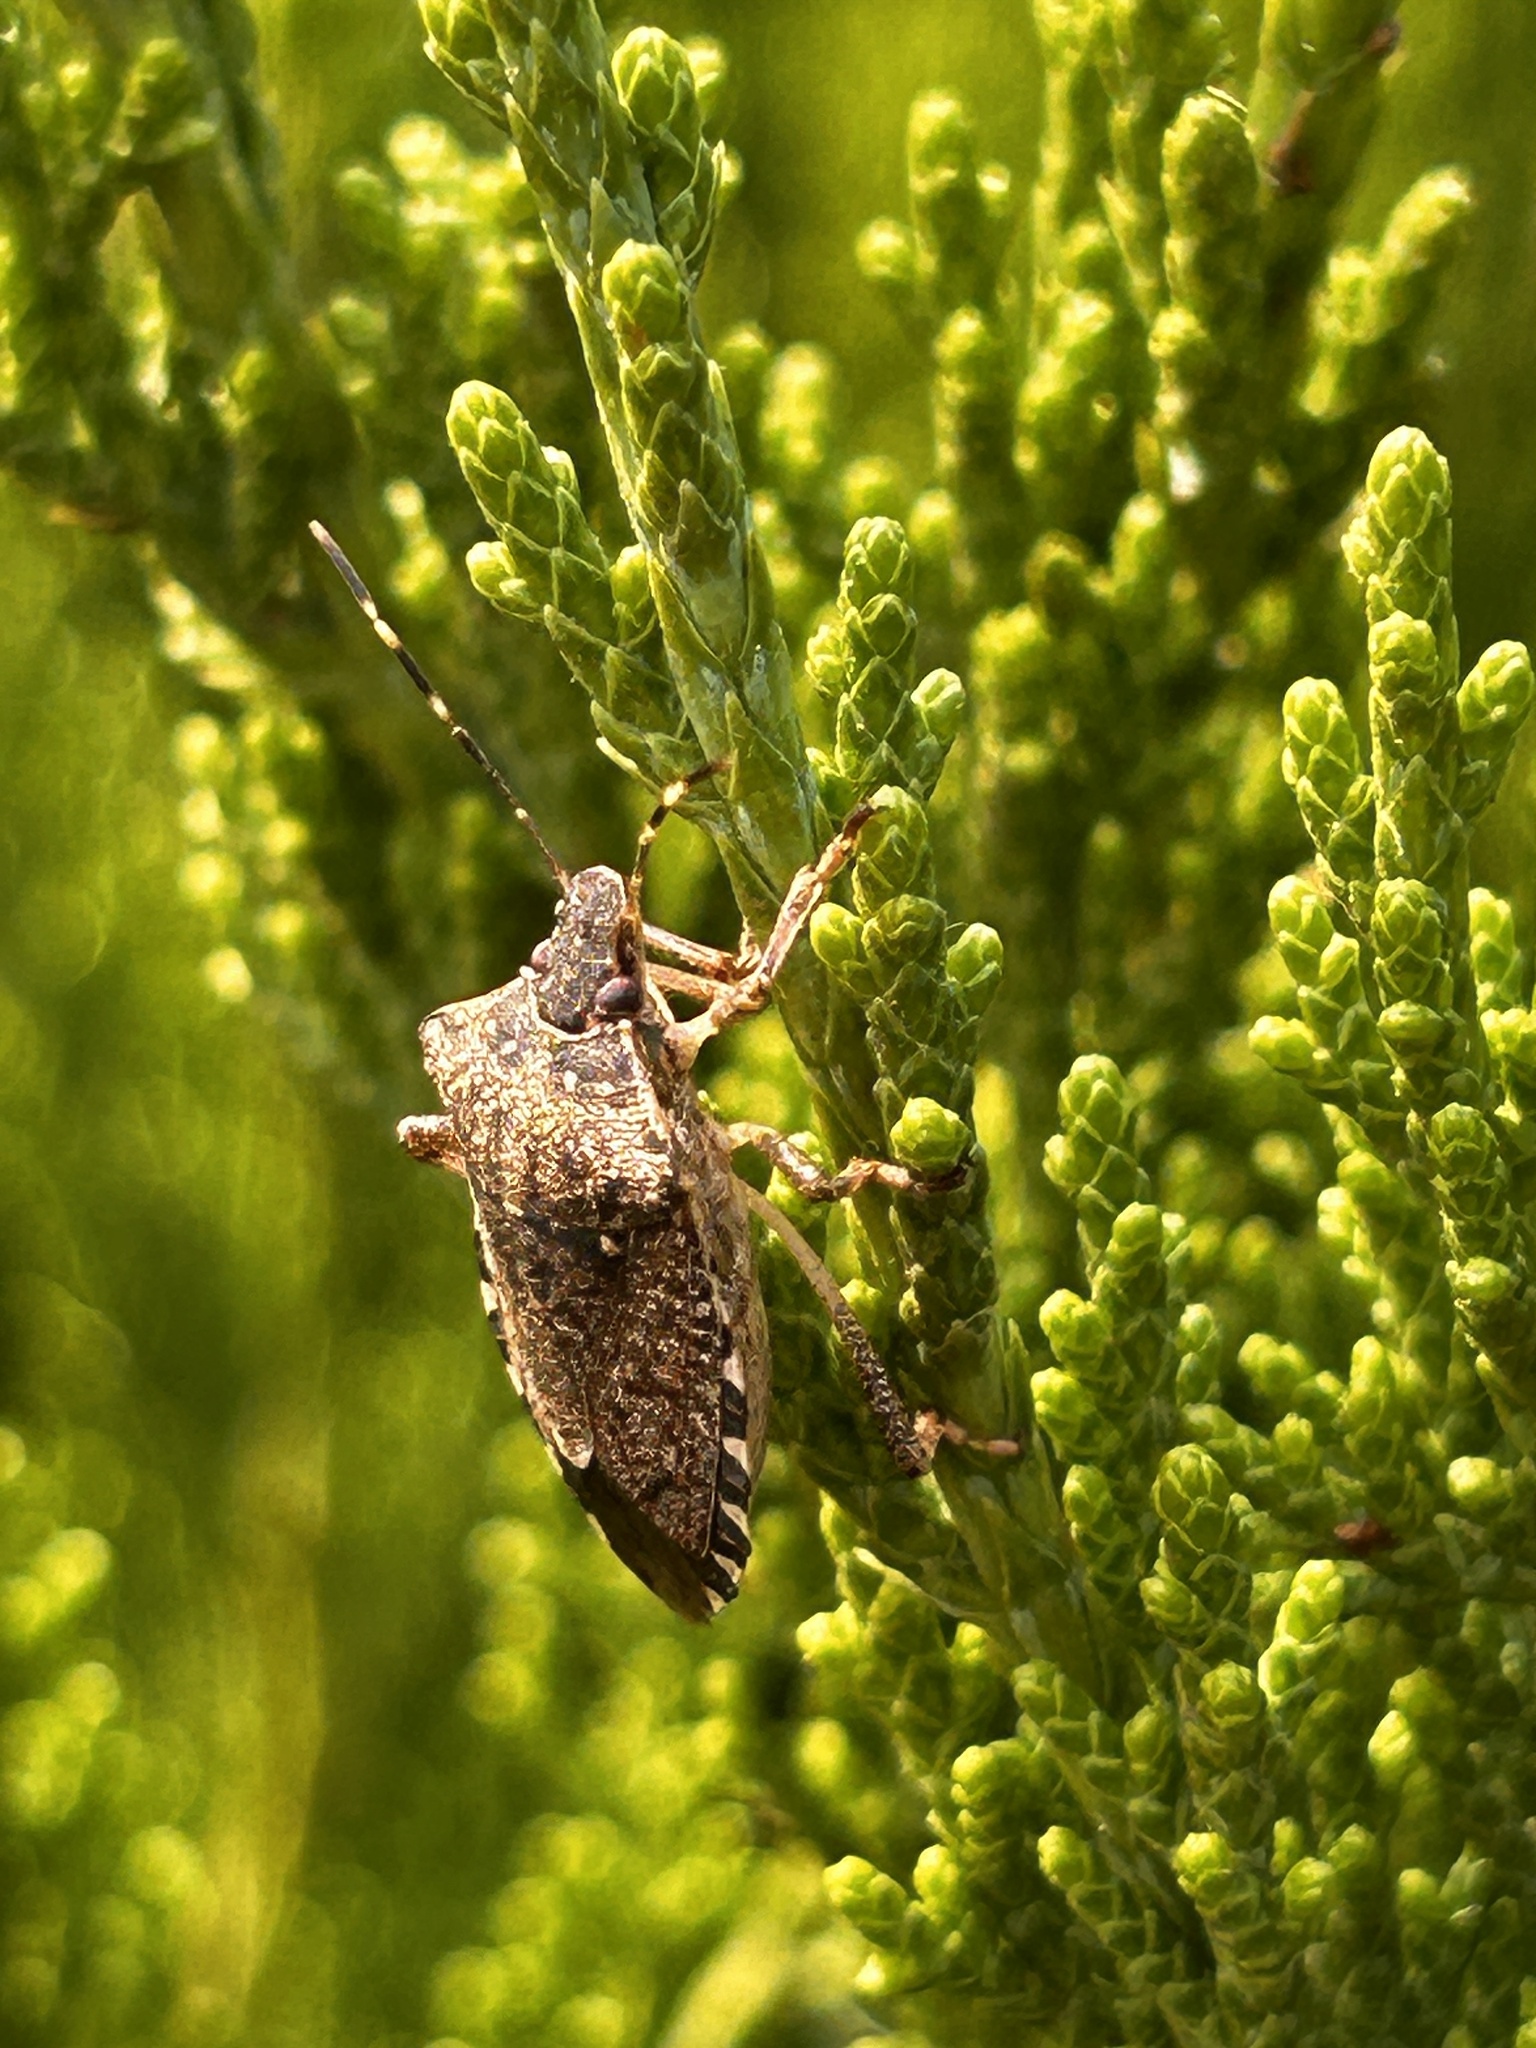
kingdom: Animalia
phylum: Arthropoda
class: Insecta
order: Hemiptera
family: Pentatomidae
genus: Halyomorpha
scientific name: Halyomorpha halys
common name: Brown marmorated stink bug
